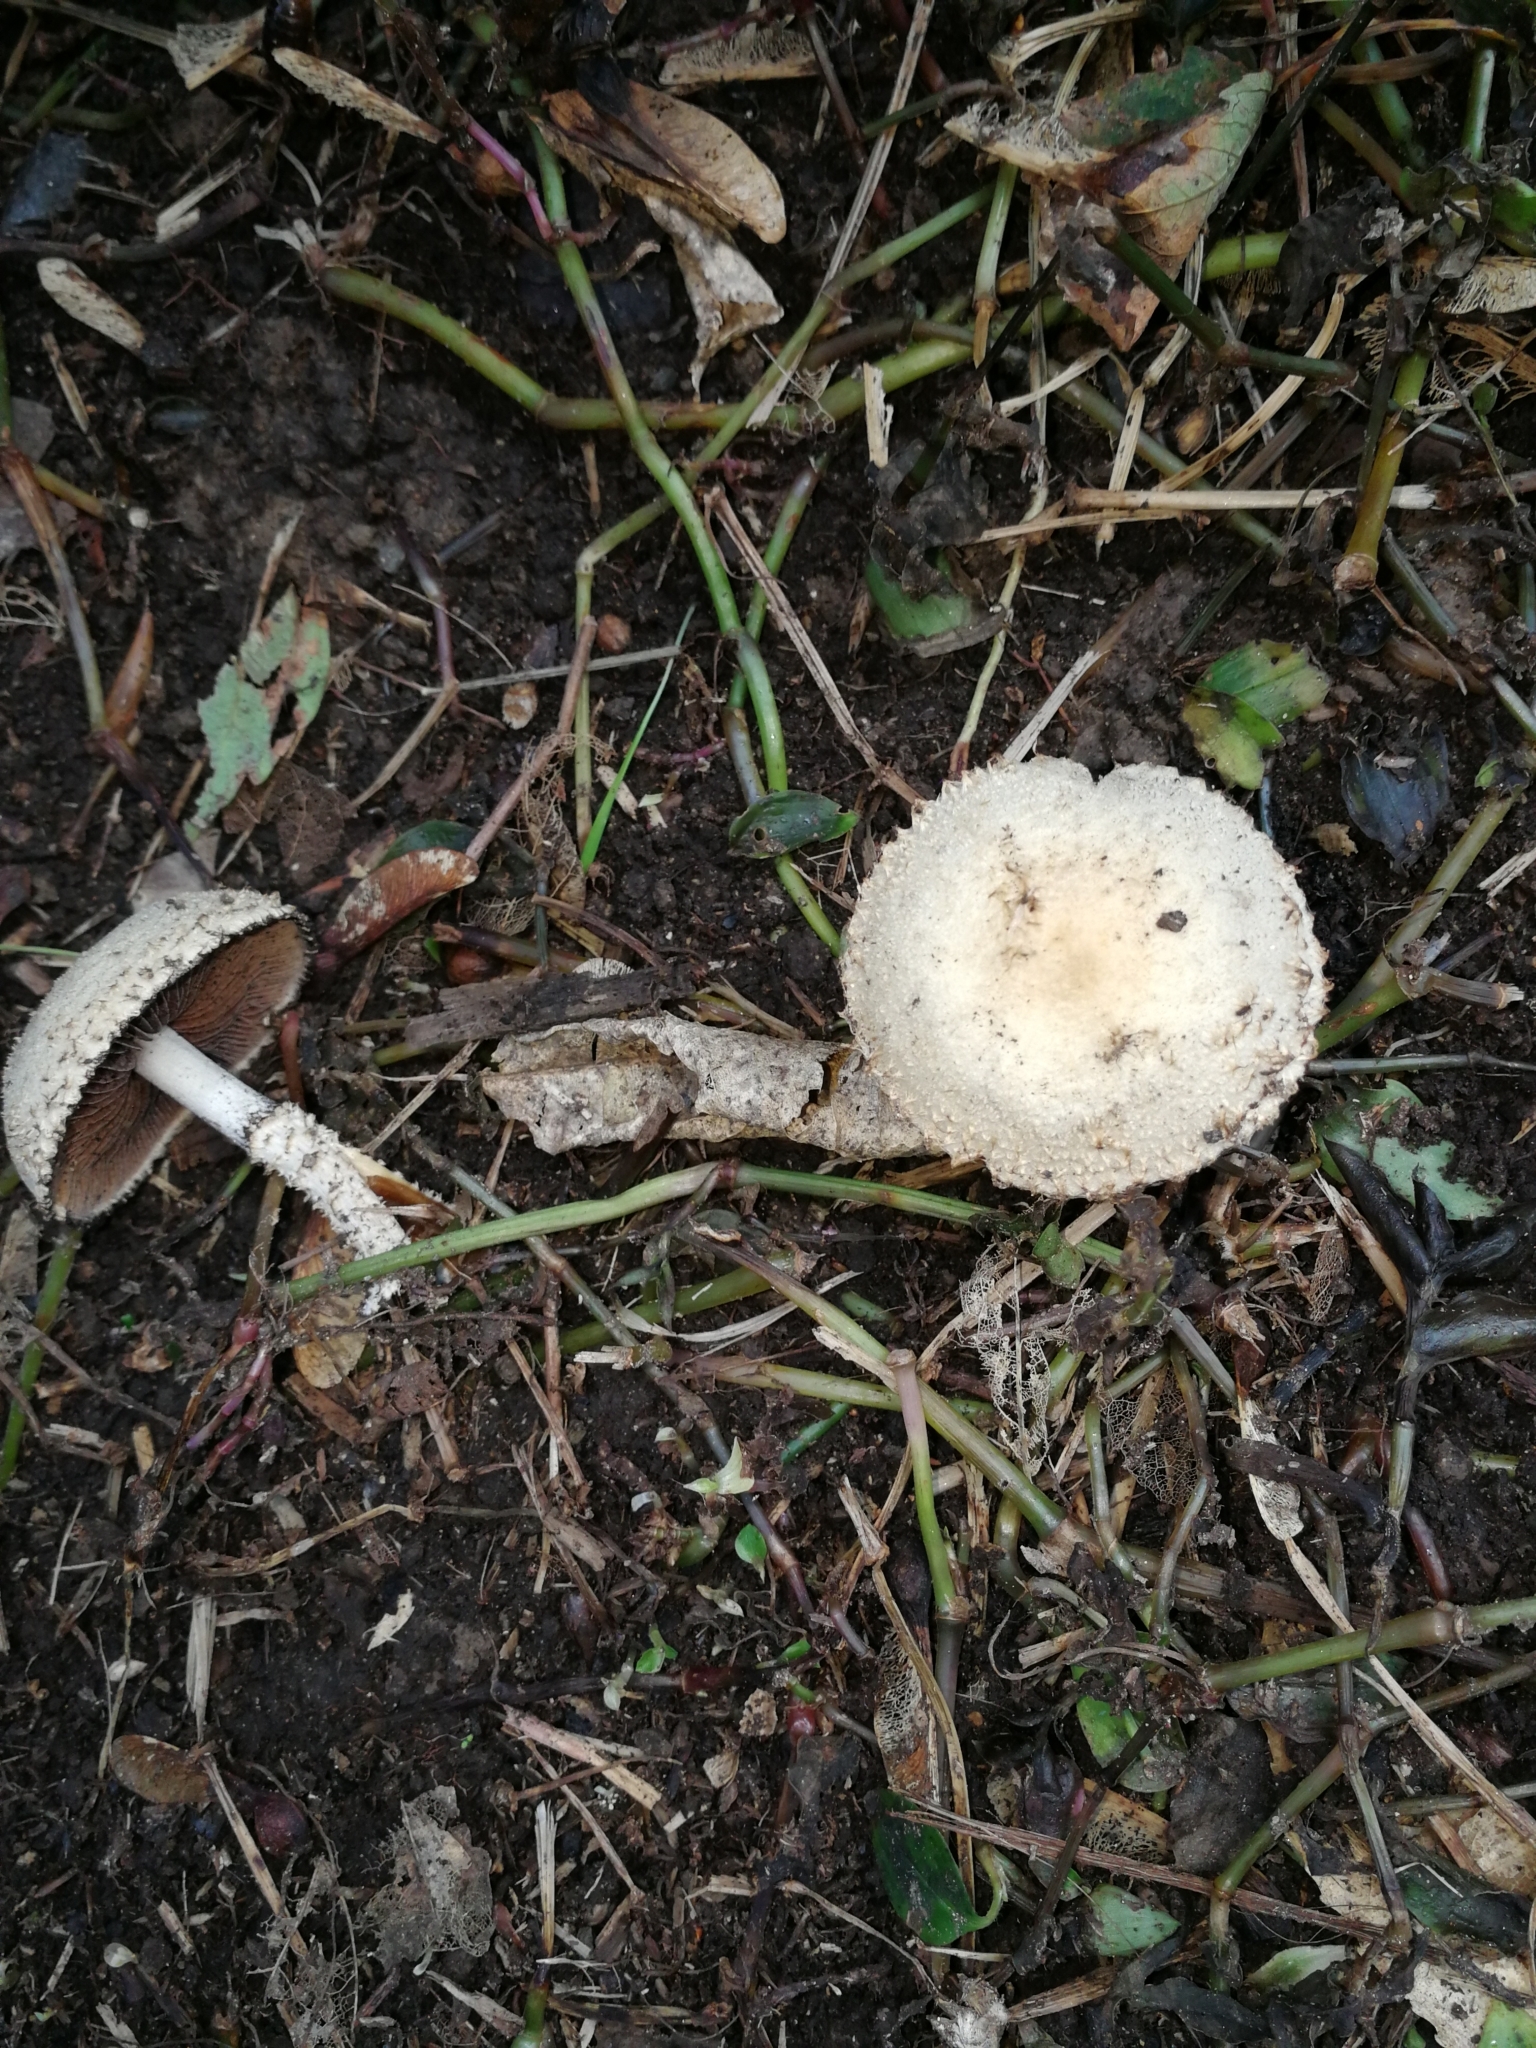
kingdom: Fungi
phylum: Basidiomycota
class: Agaricomycetes
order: Agaricales
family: Psathyrellaceae
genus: Psathyrella
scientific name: Psathyrella asperospora
